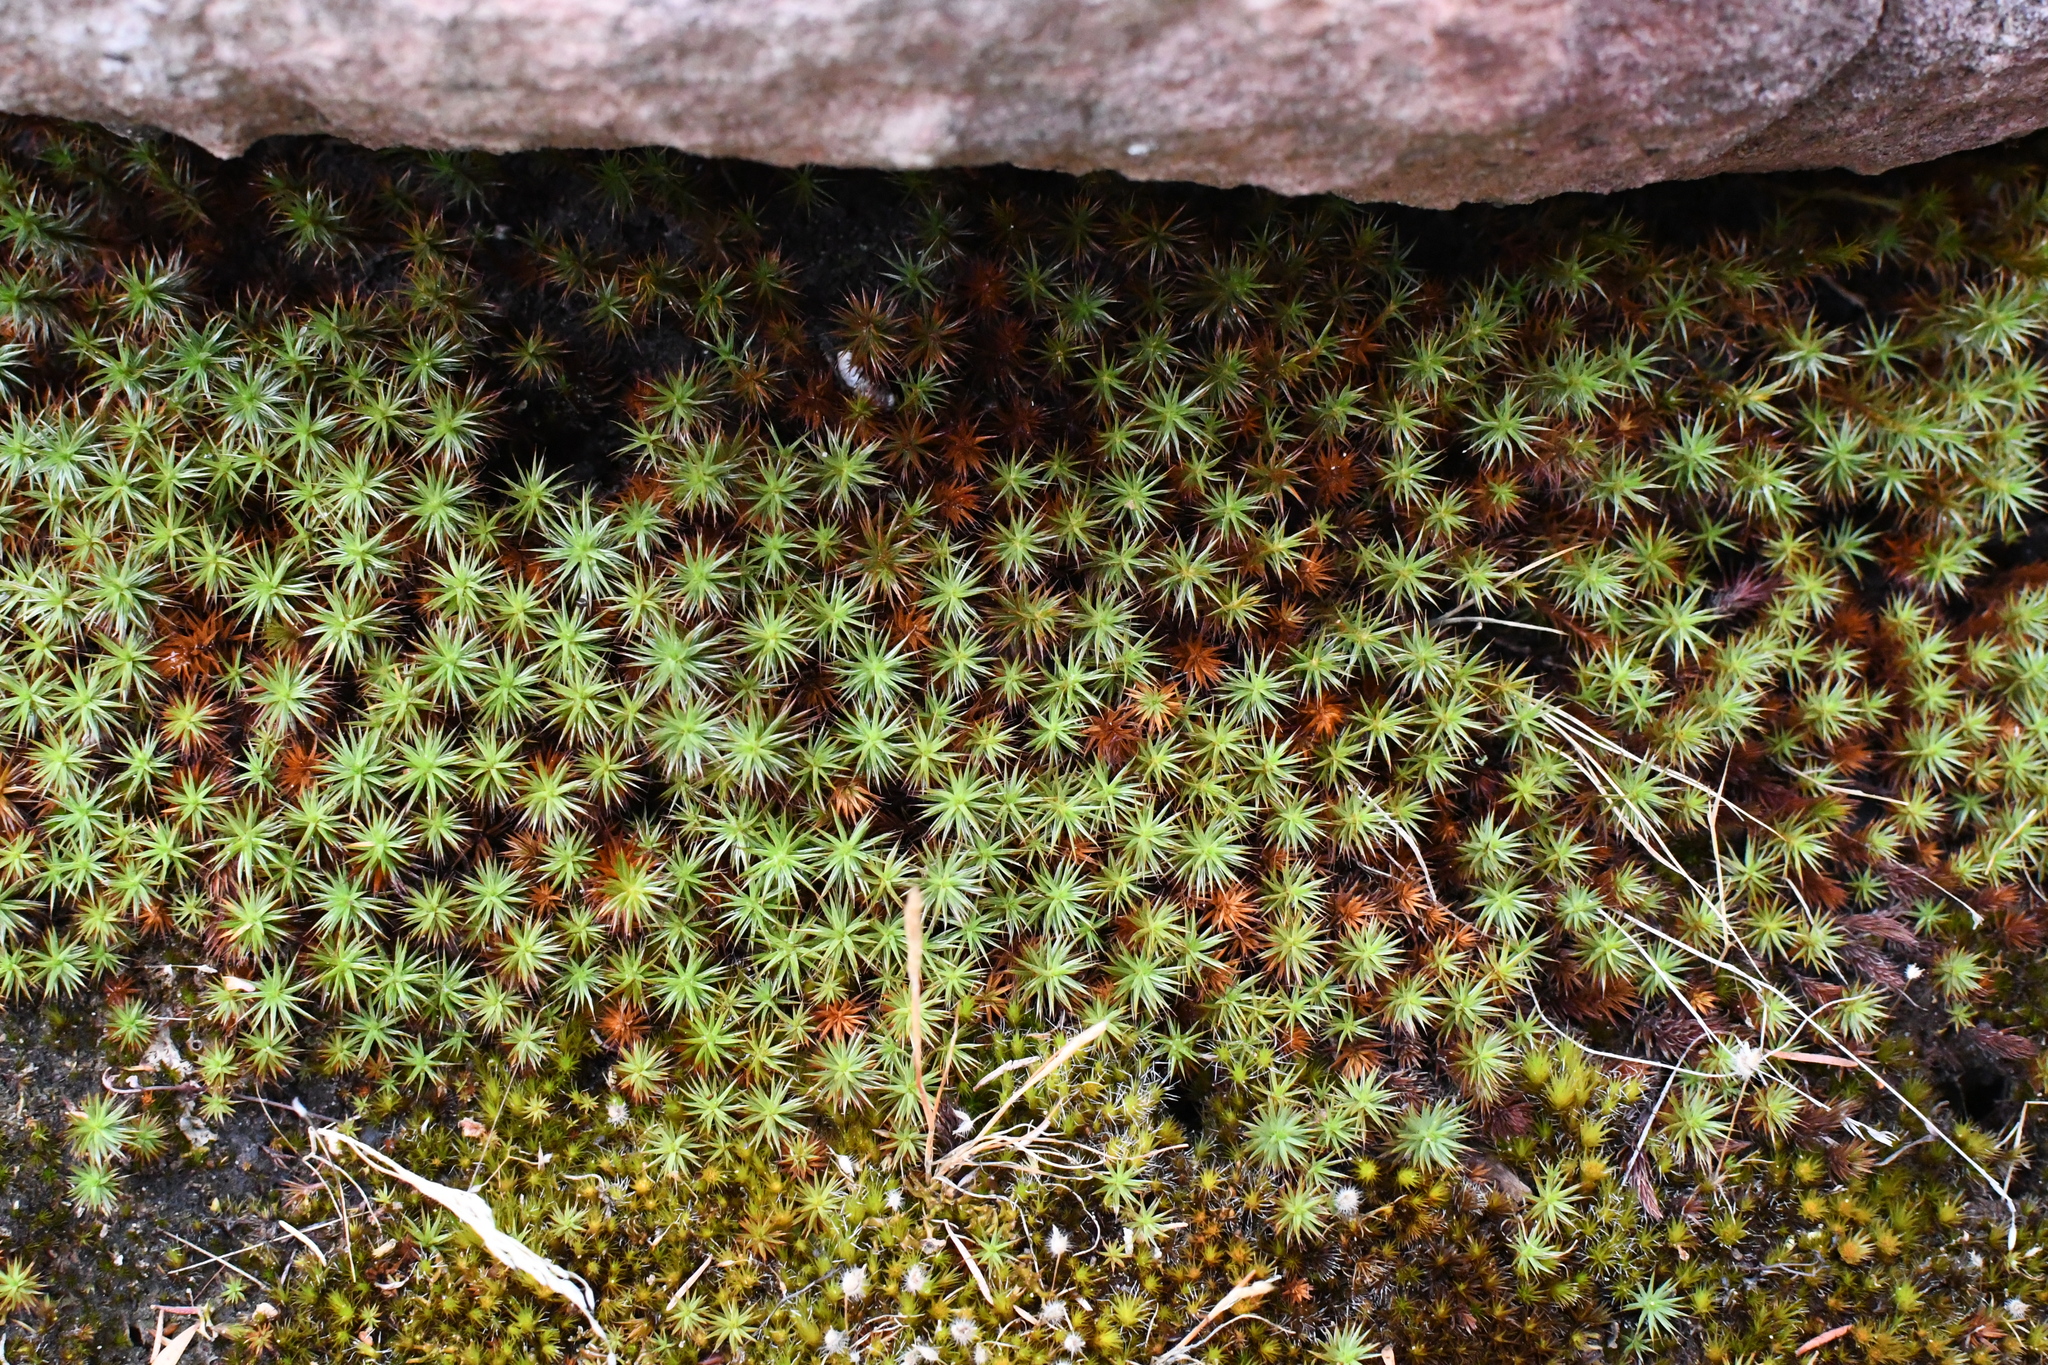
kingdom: Plantae
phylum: Bryophyta
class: Polytrichopsida
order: Polytrichales
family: Polytrichaceae
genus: Polytrichum
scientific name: Polytrichum juniperinum
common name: Juniper haircap moss
